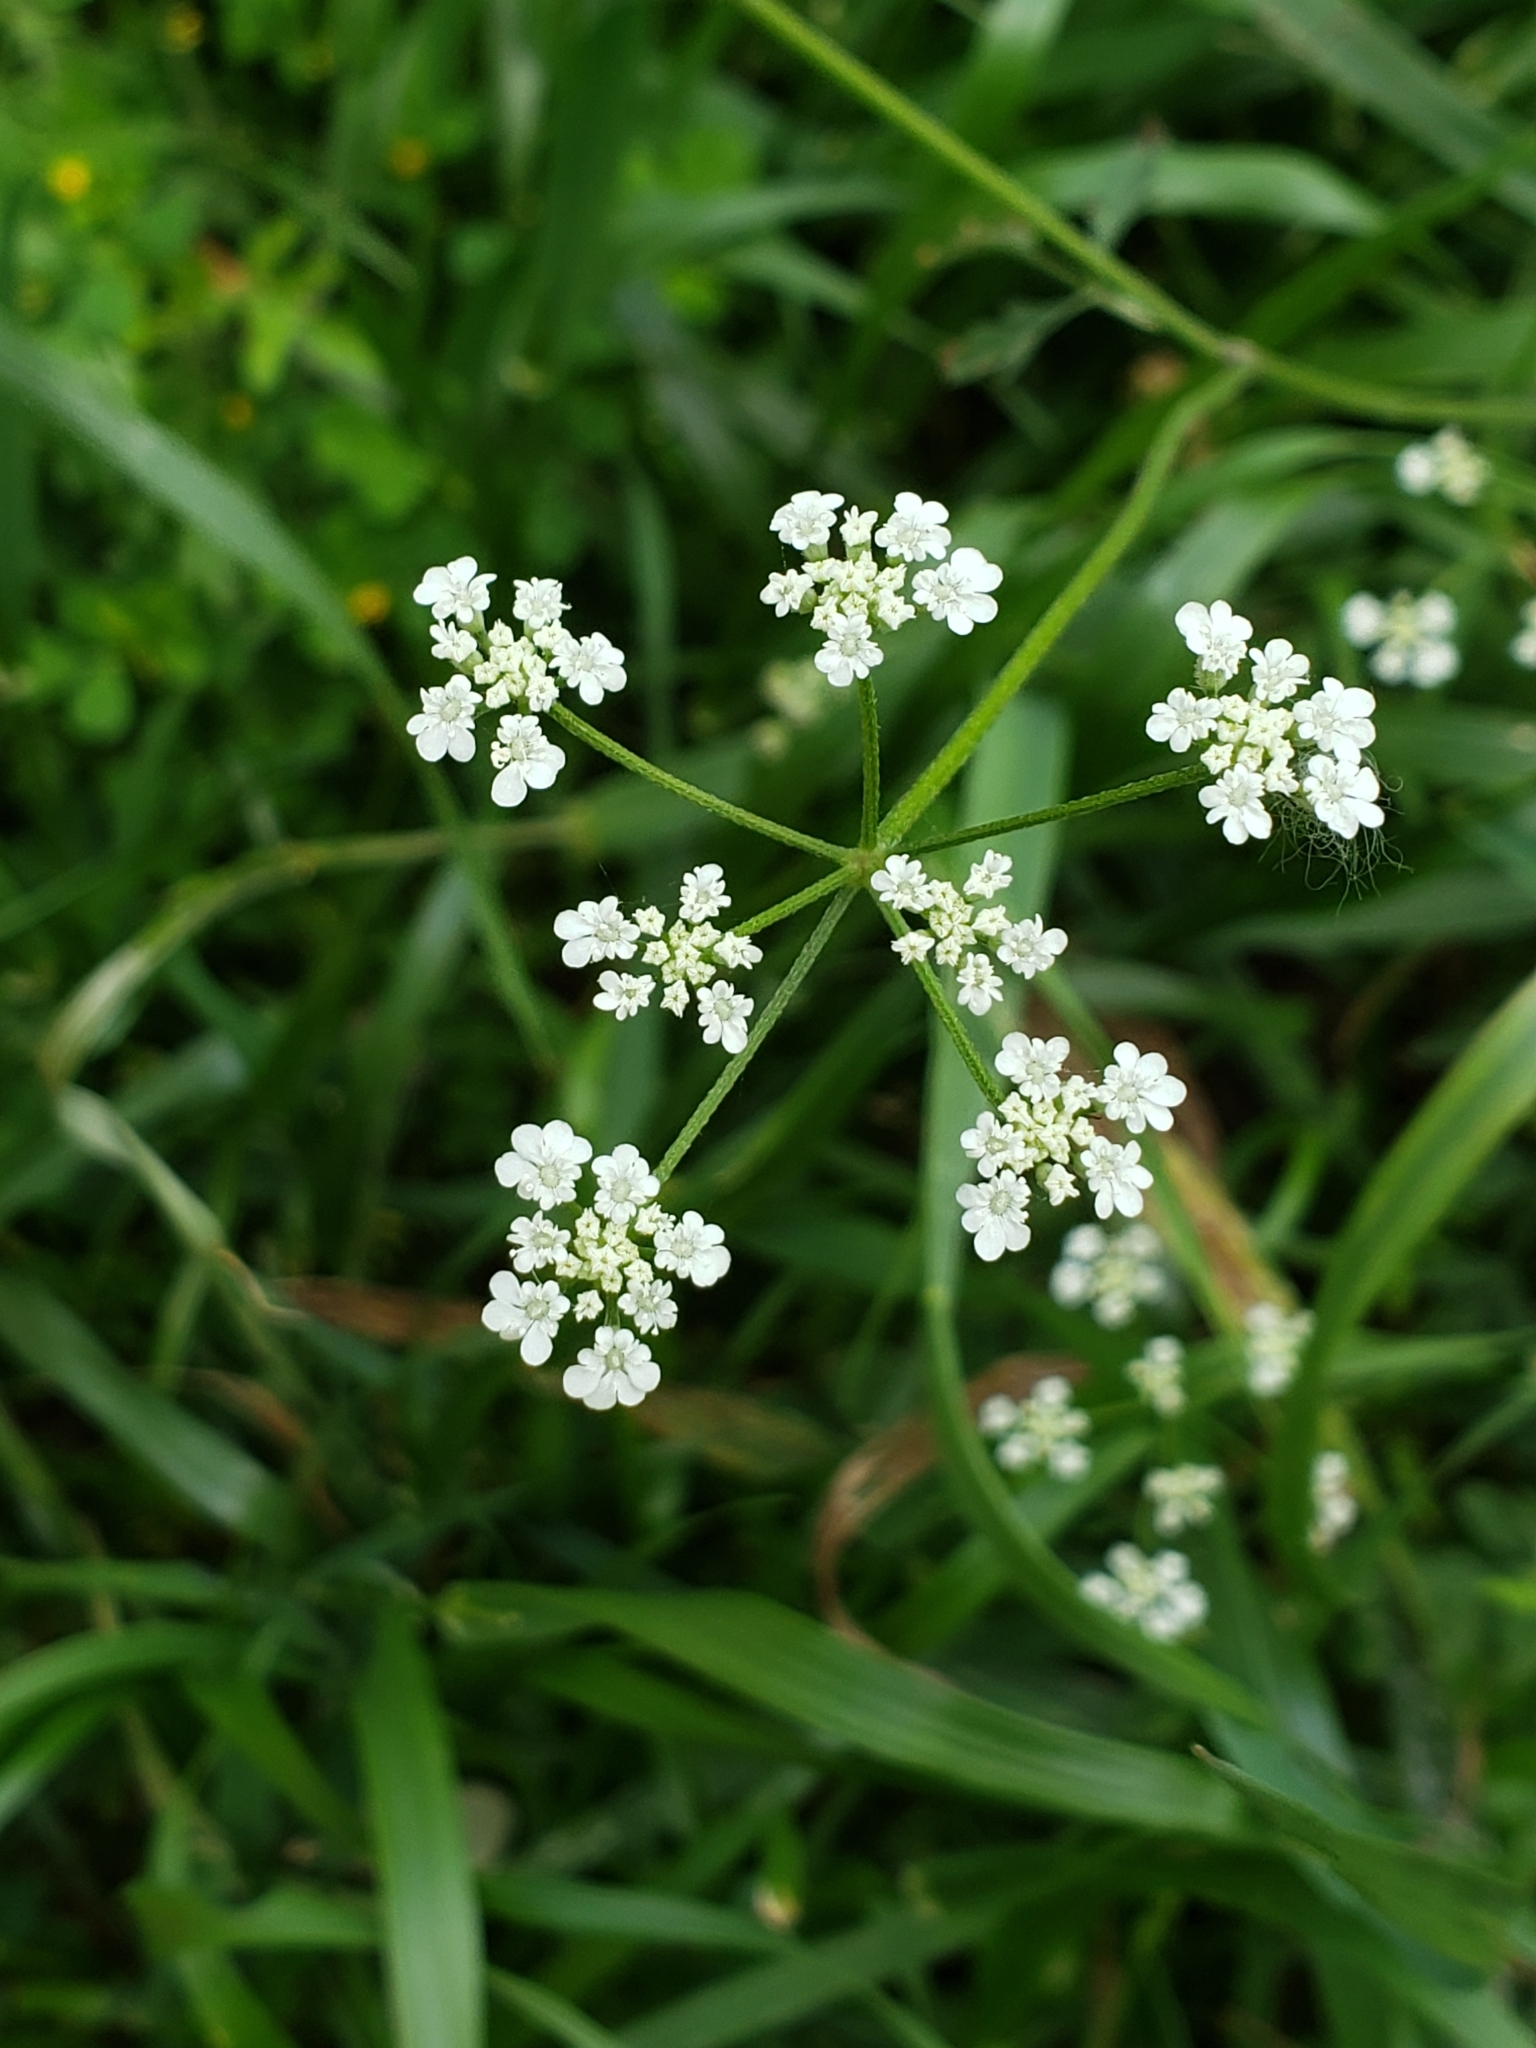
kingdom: Plantae
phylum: Tracheophyta
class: Magnoliopsida
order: Apiales
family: Apiaceae
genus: Torilis
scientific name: Torilis arvensis
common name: Spreading hedge-parsley
